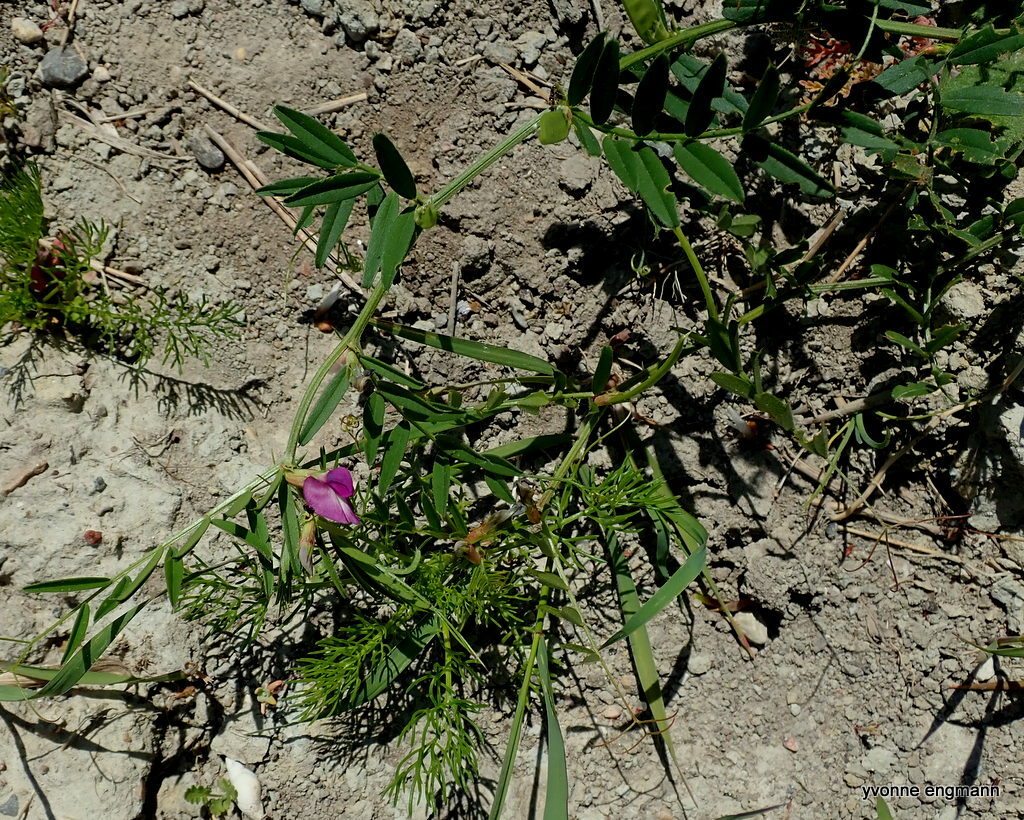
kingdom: Plantae
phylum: Tracheophyta
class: Magnoliopsida
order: Fabales
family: Fabaceae
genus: Vicia
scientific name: Vicia sativa
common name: Garden vetch
